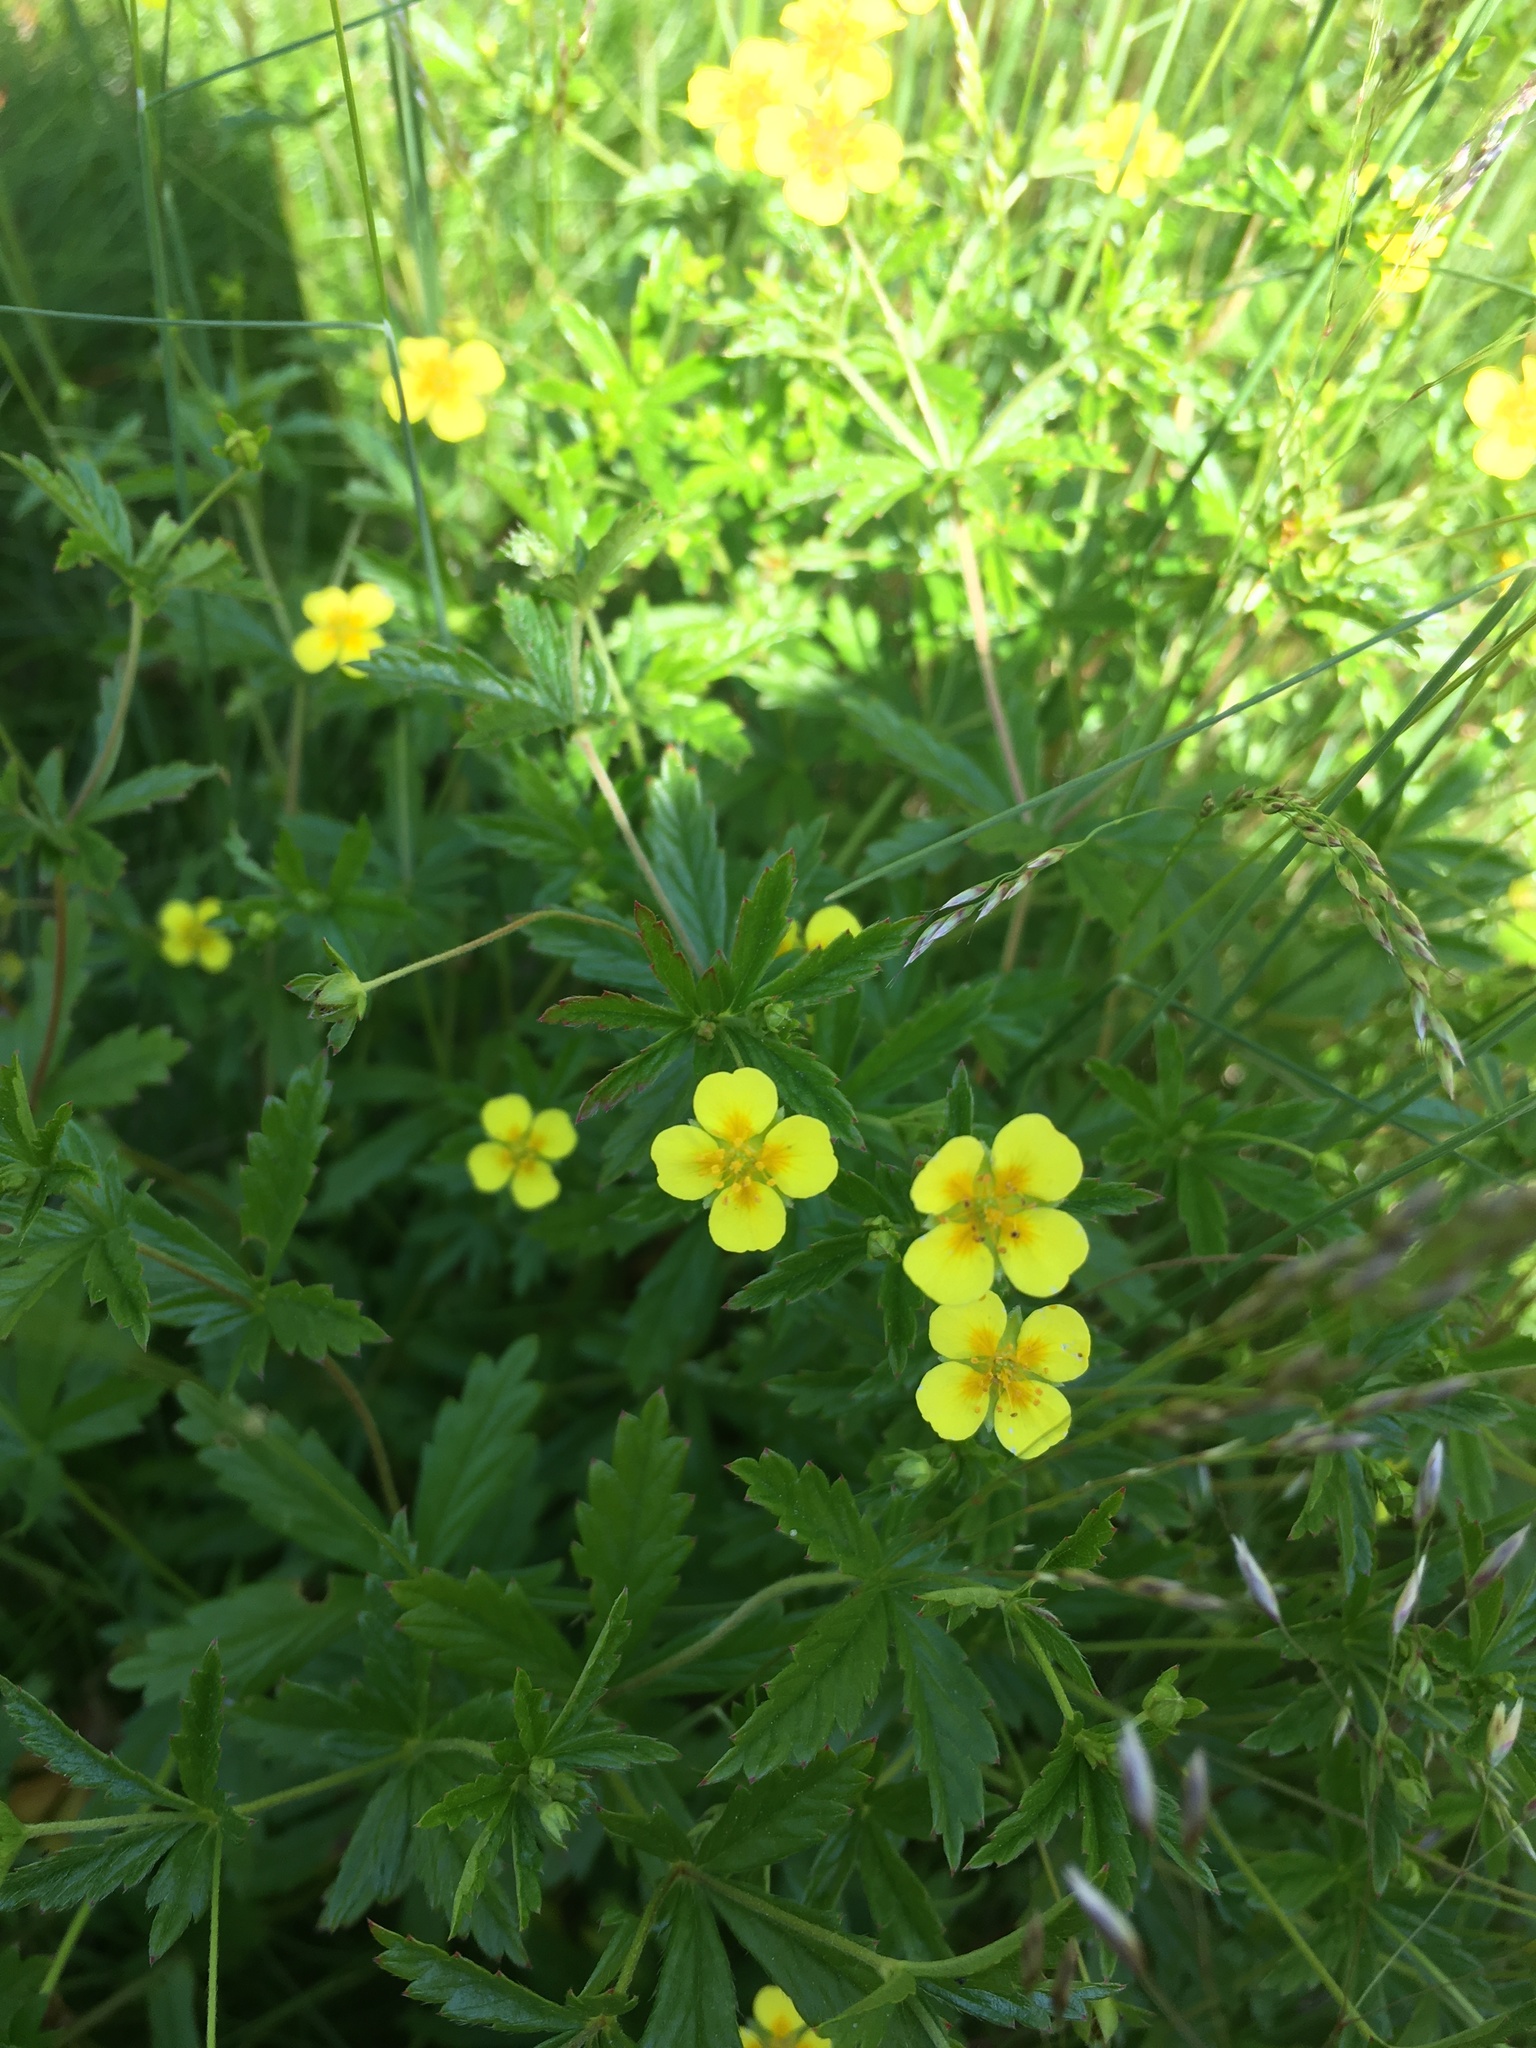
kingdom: Plantae
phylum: Tracheophyta
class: Magnoliopsida
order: Rosales
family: Rosaceae
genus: Potentilla
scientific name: Potentilla erecta
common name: Tormentil
